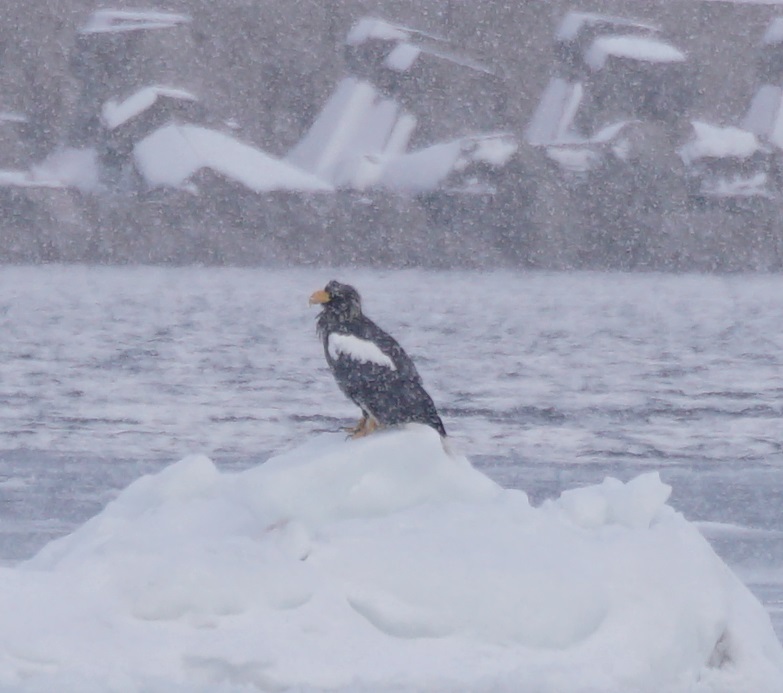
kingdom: Animalia
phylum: Chordata
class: Aves
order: Accipitriformes
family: Accipitridae
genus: Haliaeetus
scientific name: Haliaeetus pelagicus
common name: Steller's sea eagle
